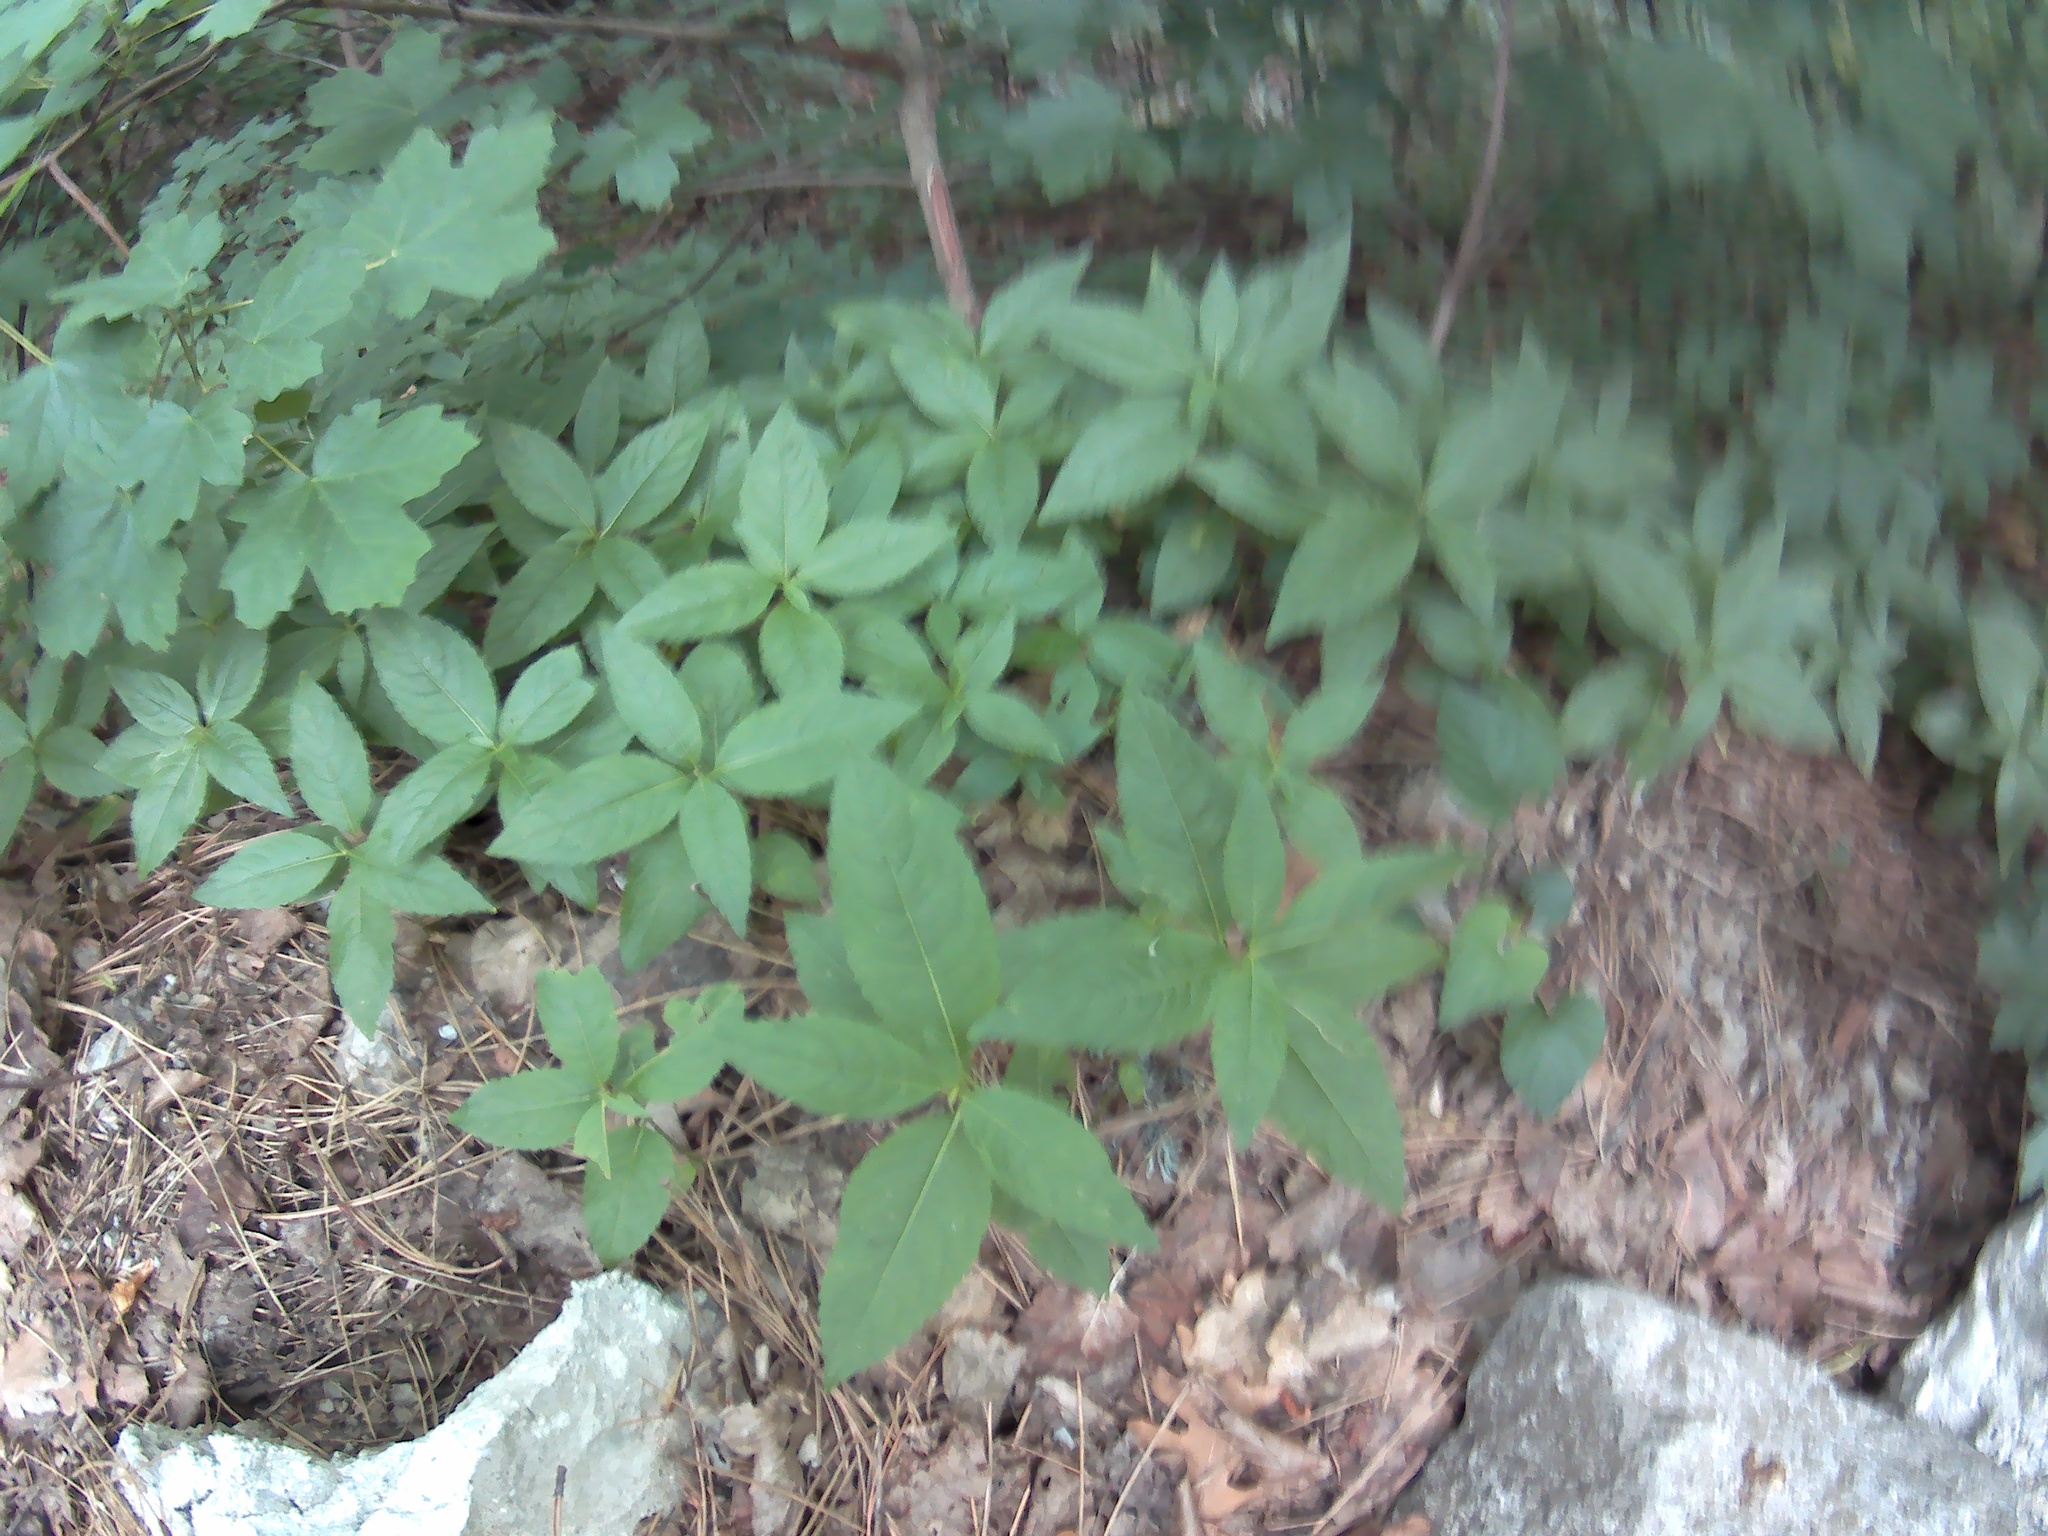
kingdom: Plantae
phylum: Tracheophyta
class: Magnoliopsida
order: Malpighiales
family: Euphorbiaceae
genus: Mercurialis
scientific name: Mercurialis perennis
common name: Dog mercury
